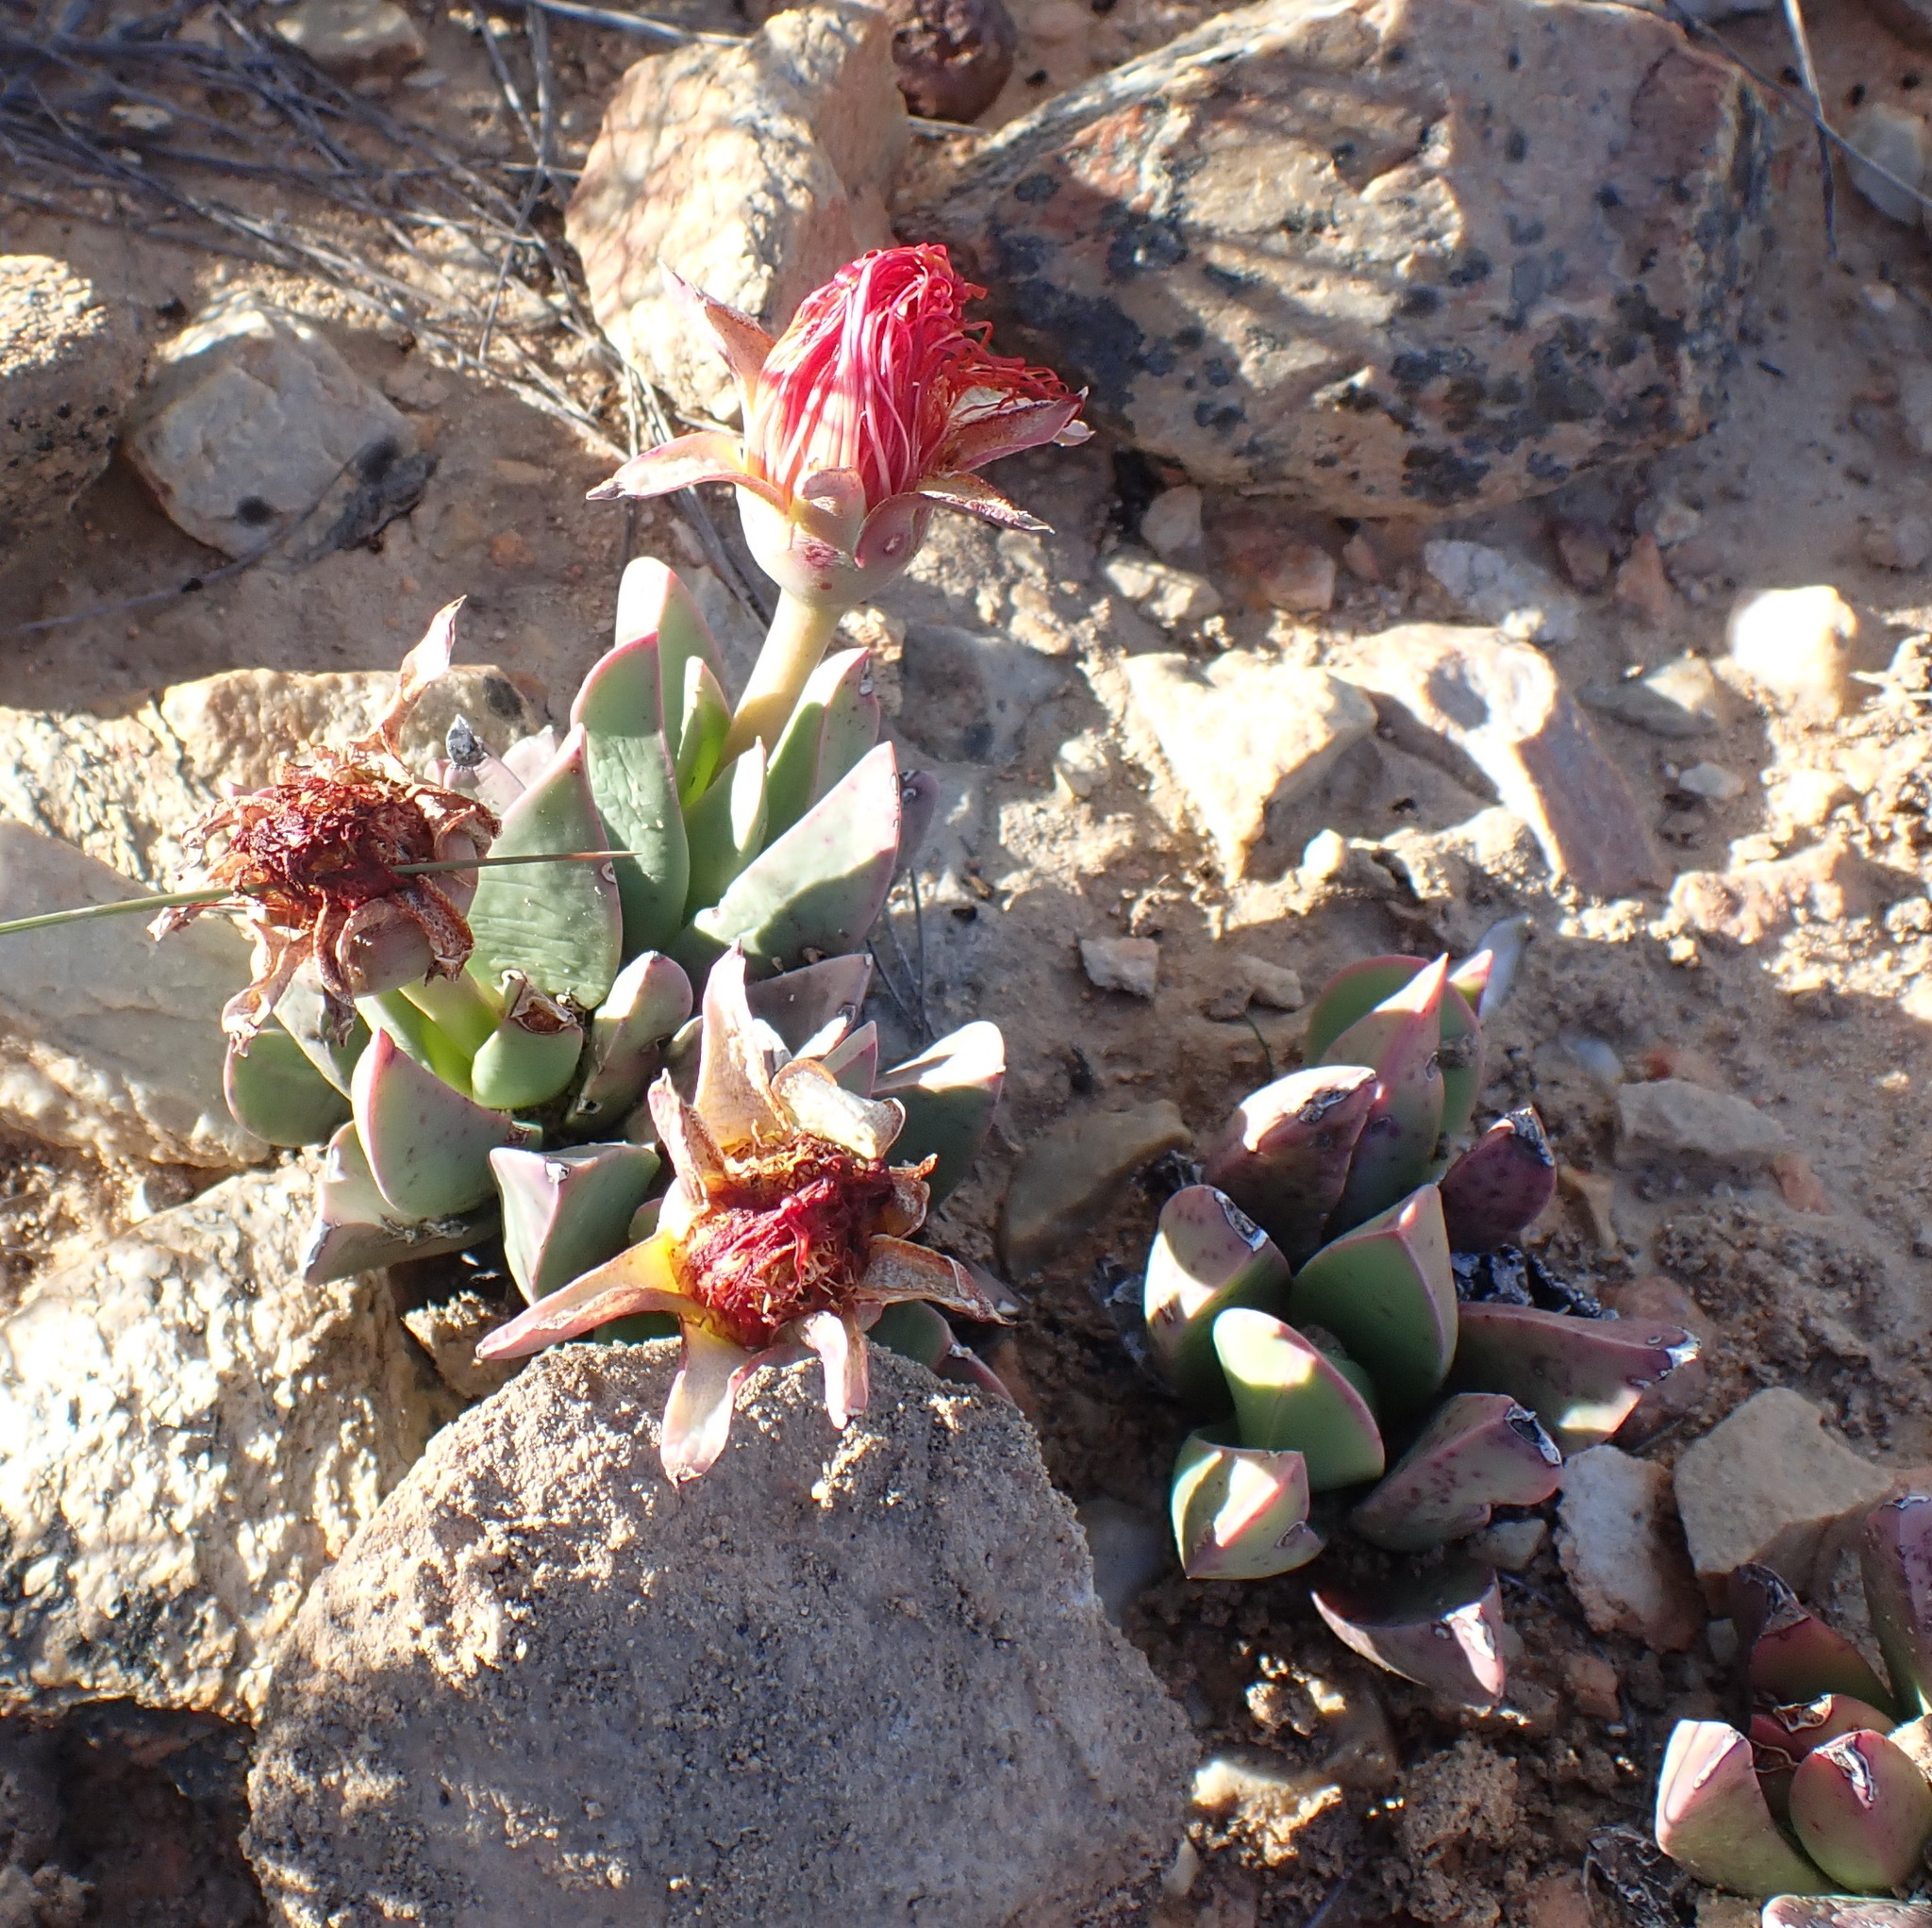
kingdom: Plantae
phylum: Tracheophyta
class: Magnoliopsida
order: Caryophyllales
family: Aizoaceae
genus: Machairophyllum
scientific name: Machairophyllum bijlii
